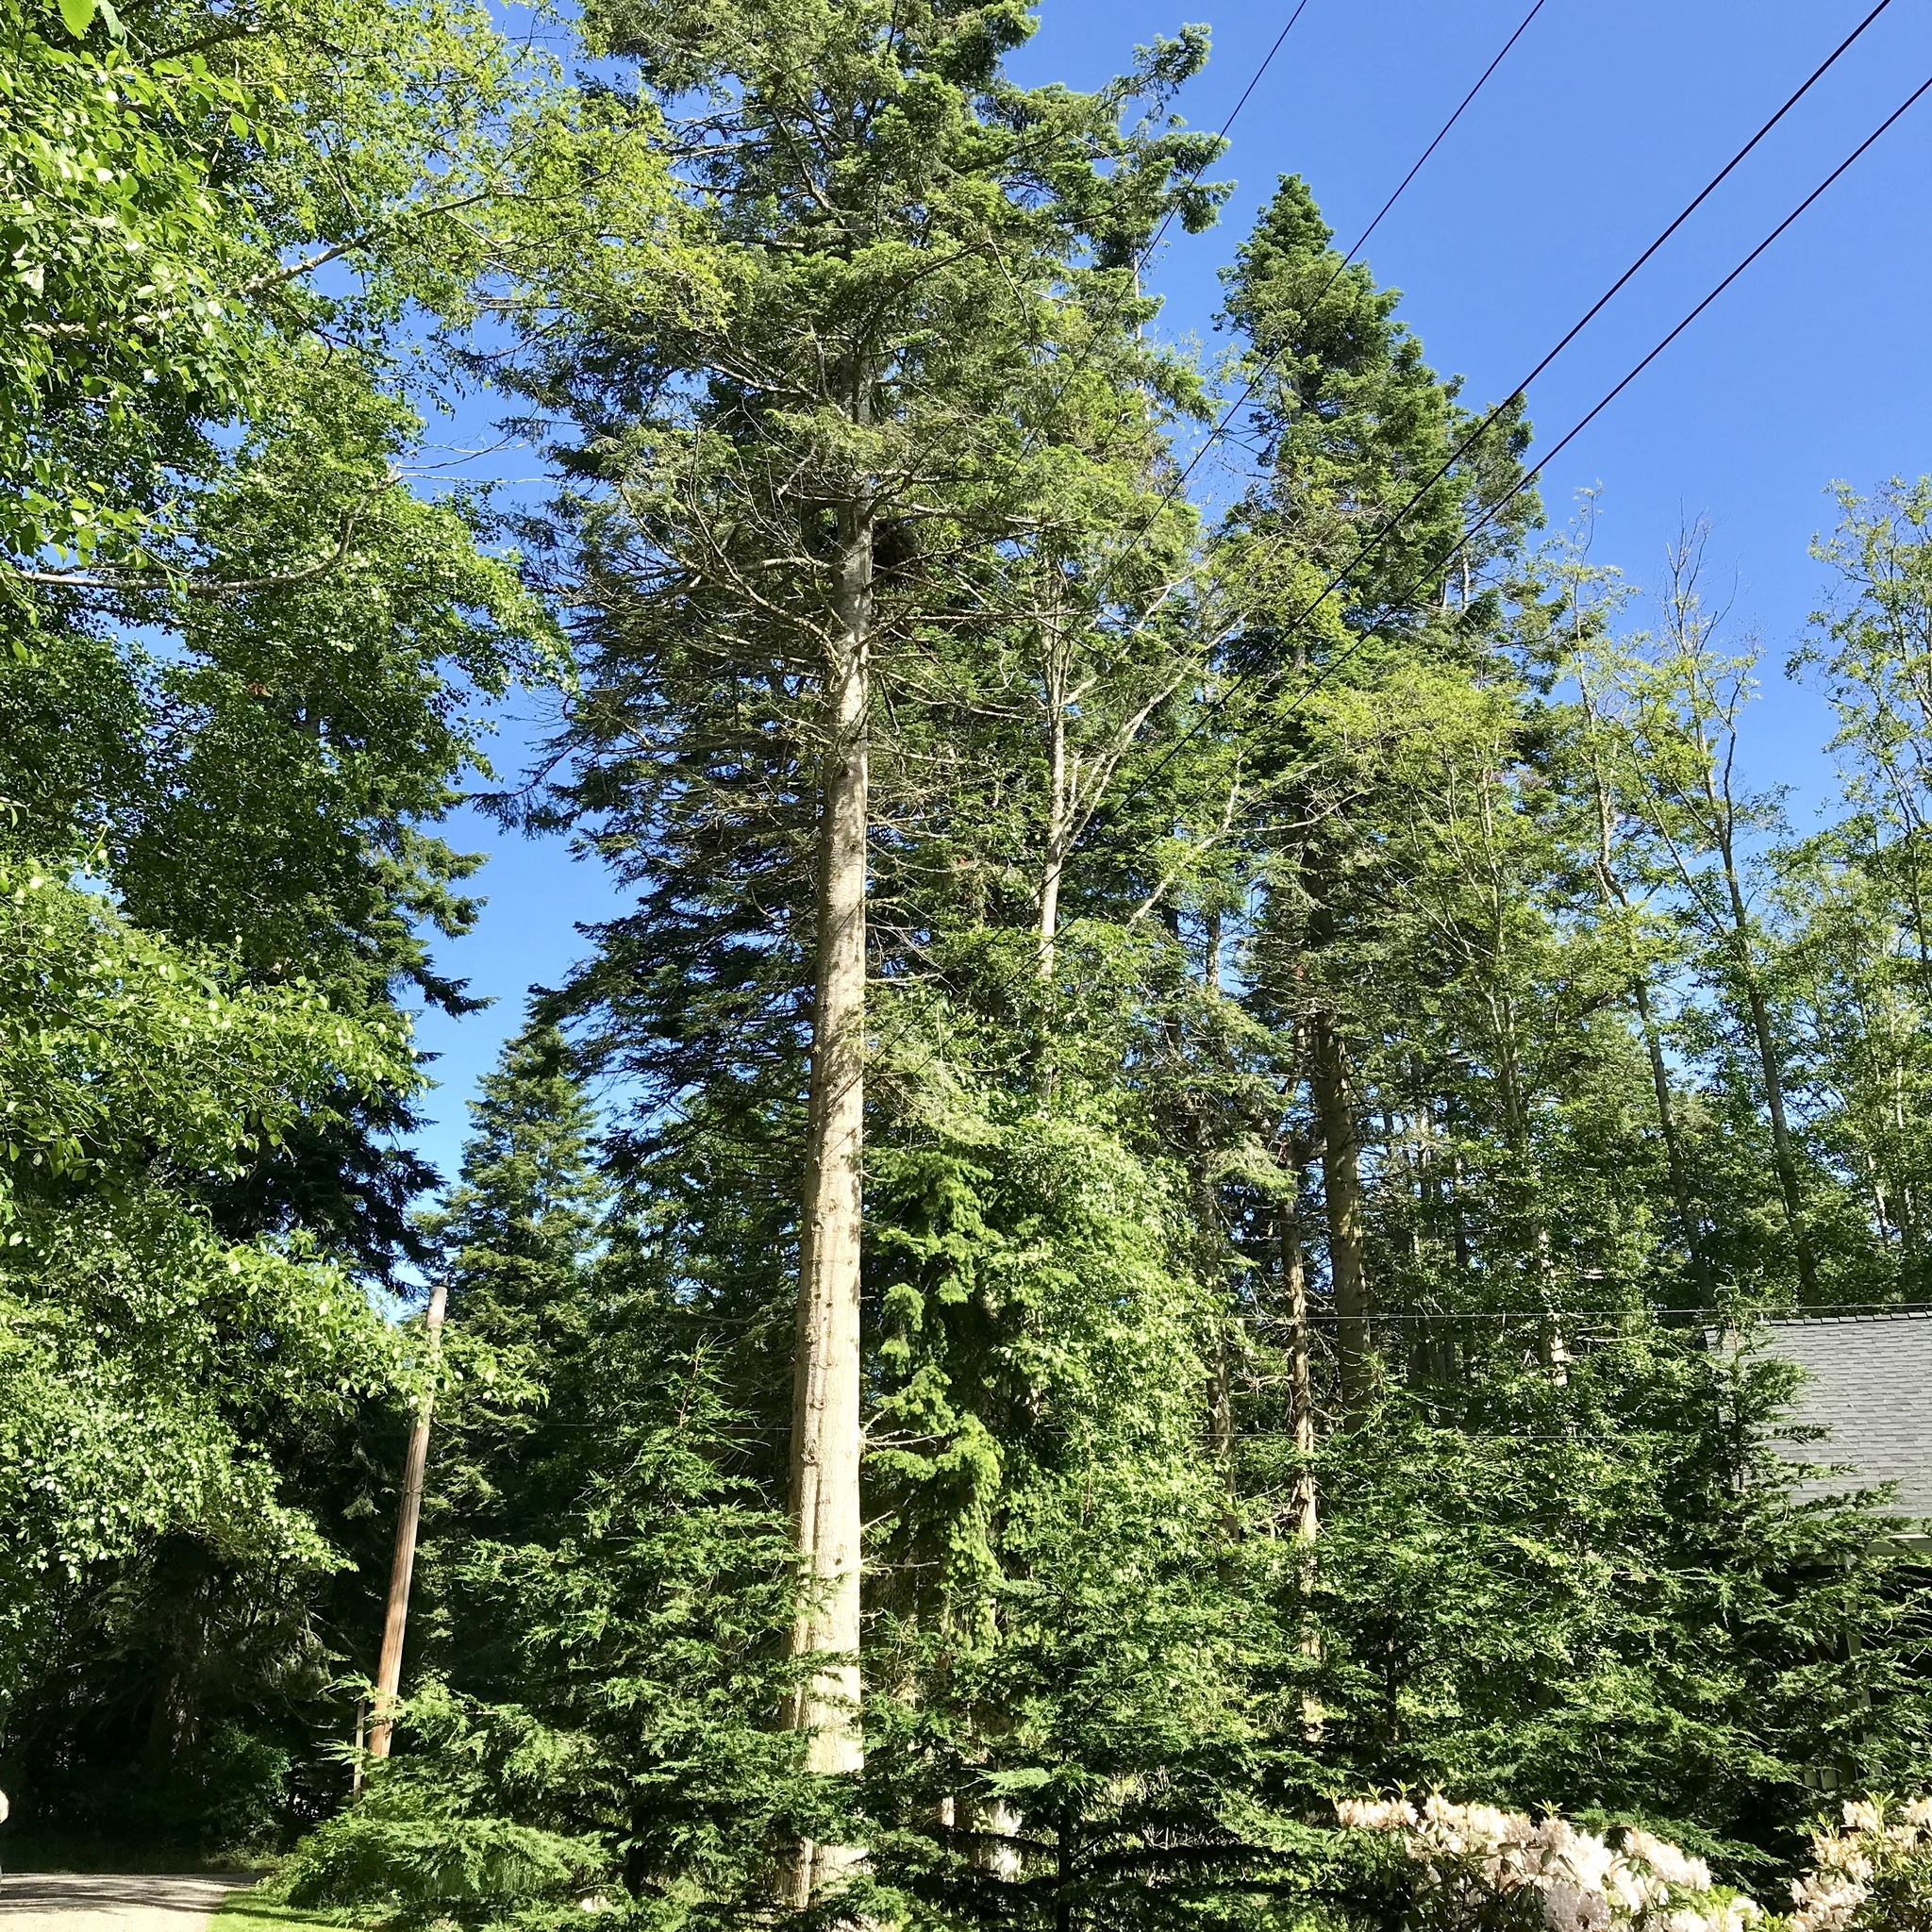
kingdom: Animalia
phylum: Chordata
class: Aves
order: Accipitriformes
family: Accipitridae
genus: Haliaeetus
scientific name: Haliaeetus leucocephalus
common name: Bald eagle
